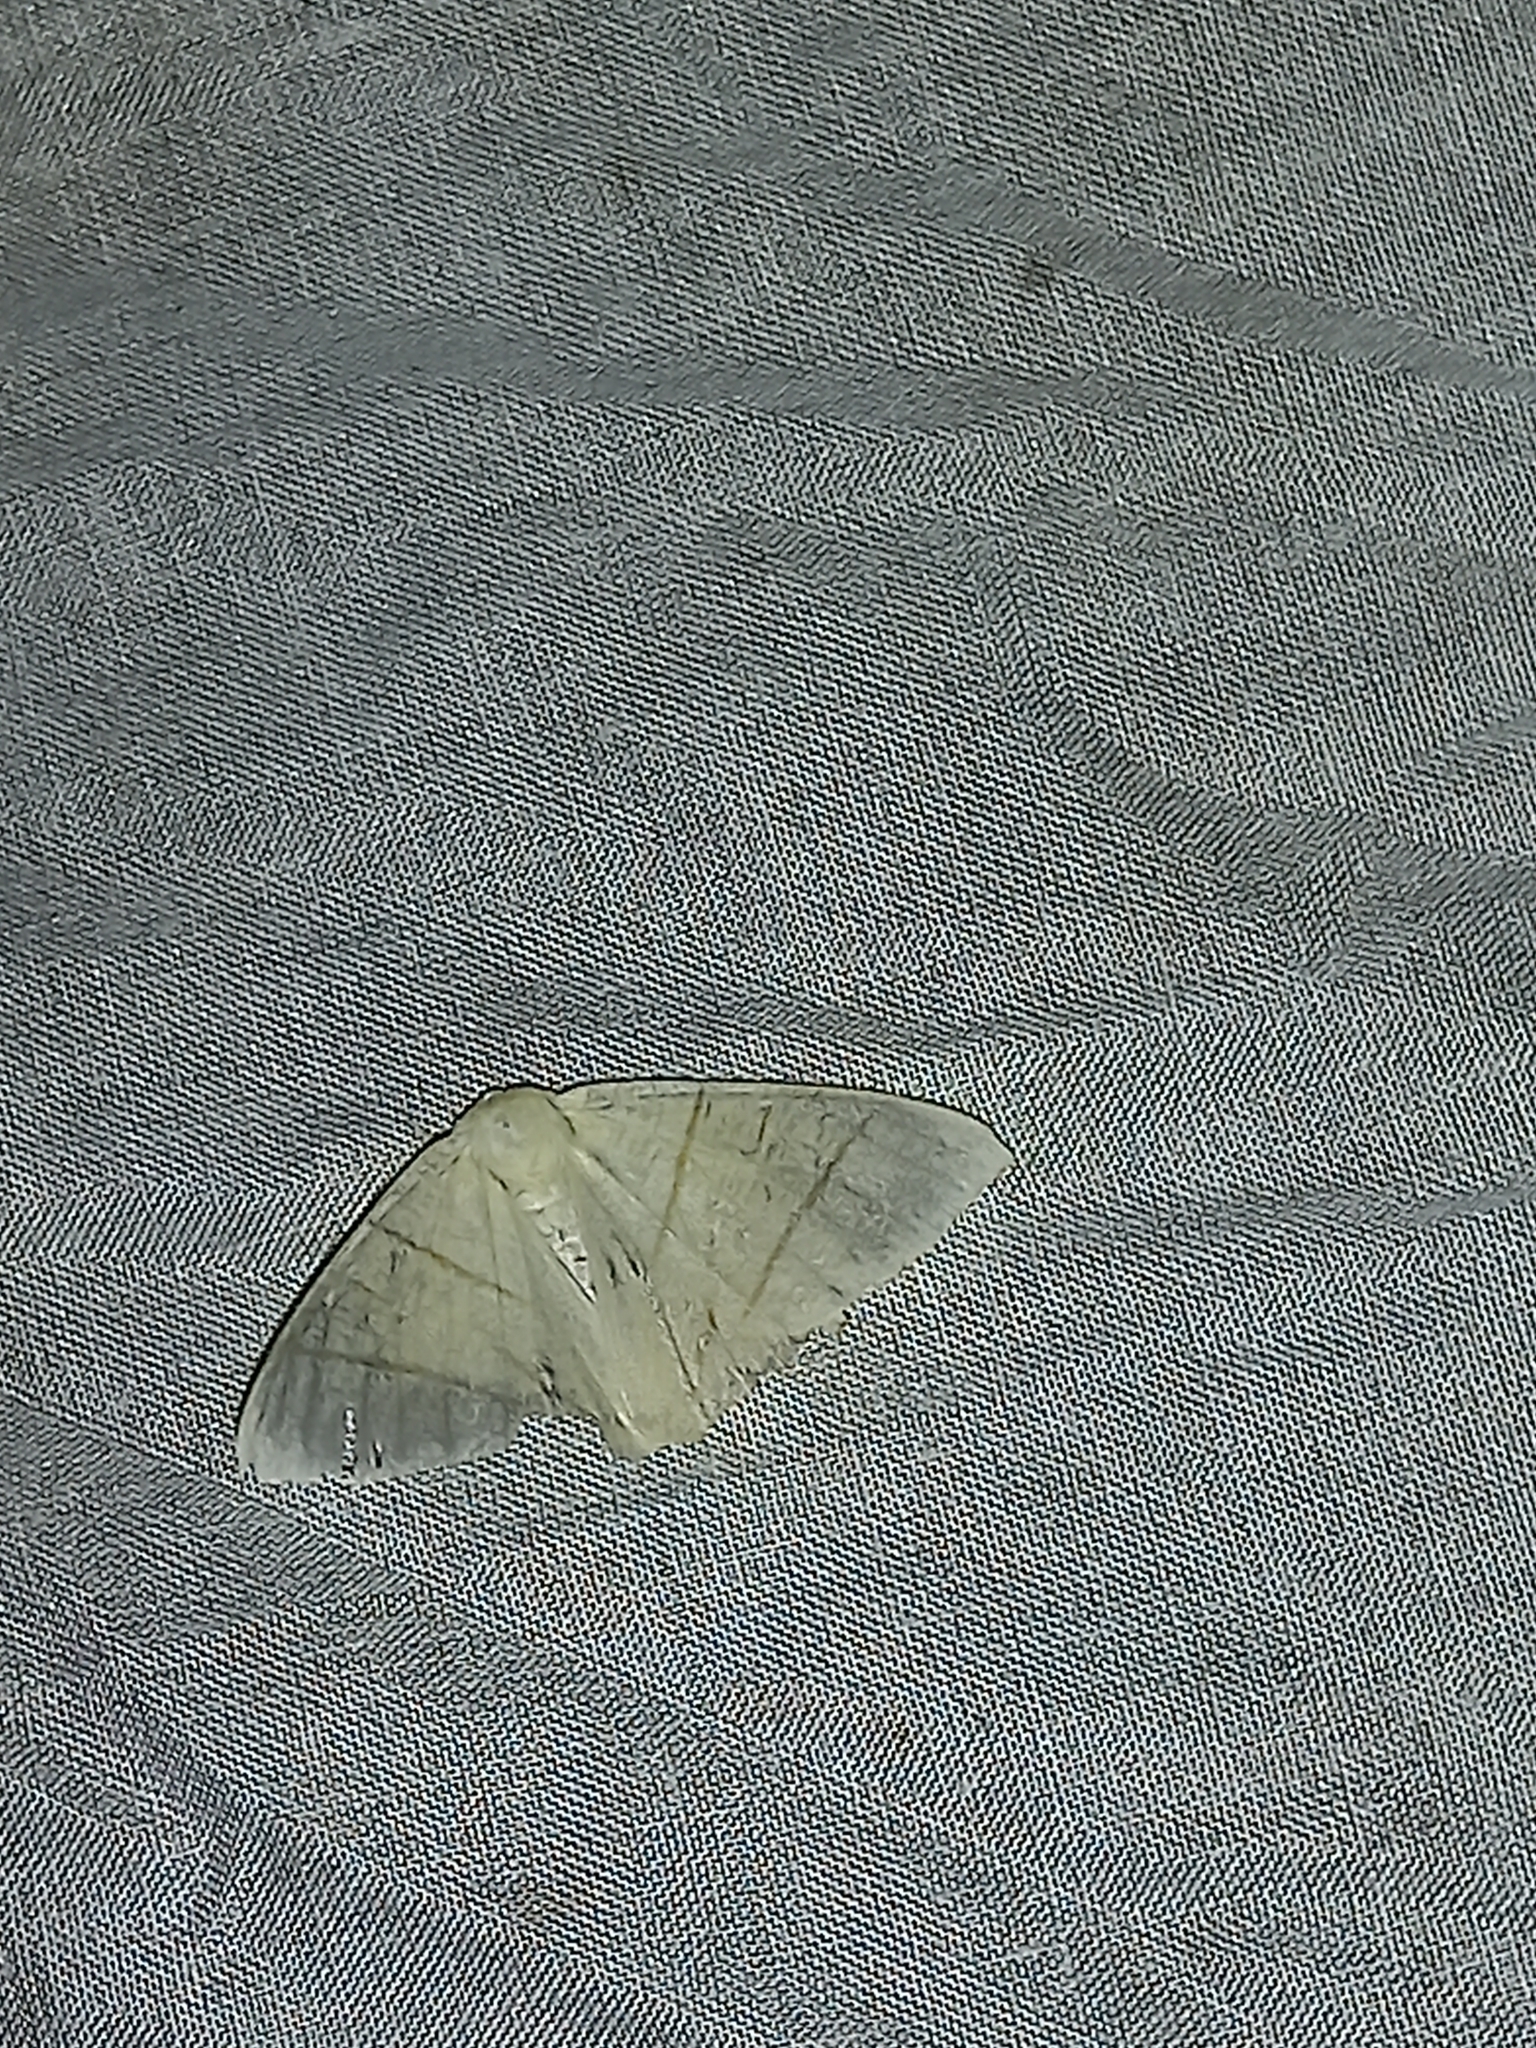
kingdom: Animalia
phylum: Arthropoda
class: Insecta
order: Lepidoptera
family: Geometridae
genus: Ourapteryx
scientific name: Ourapteryx sambucaria
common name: Swallow-tailed moth
